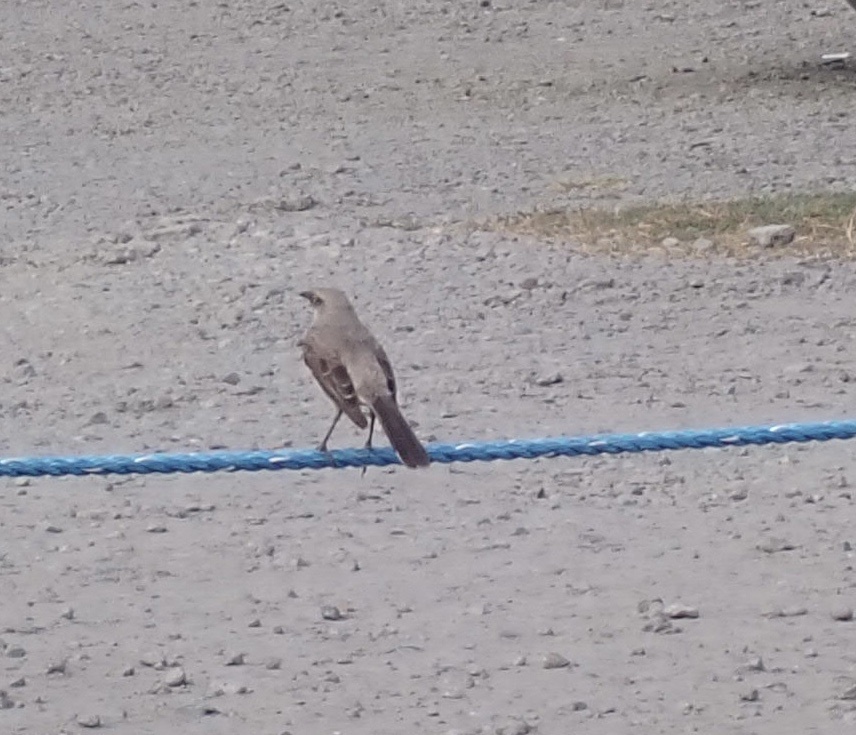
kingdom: Animalia
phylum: Chordata
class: Aves
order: Passeriformes
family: Mimidae
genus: Mimus
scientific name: Mimus gilvus
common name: Tropical mockingbird
